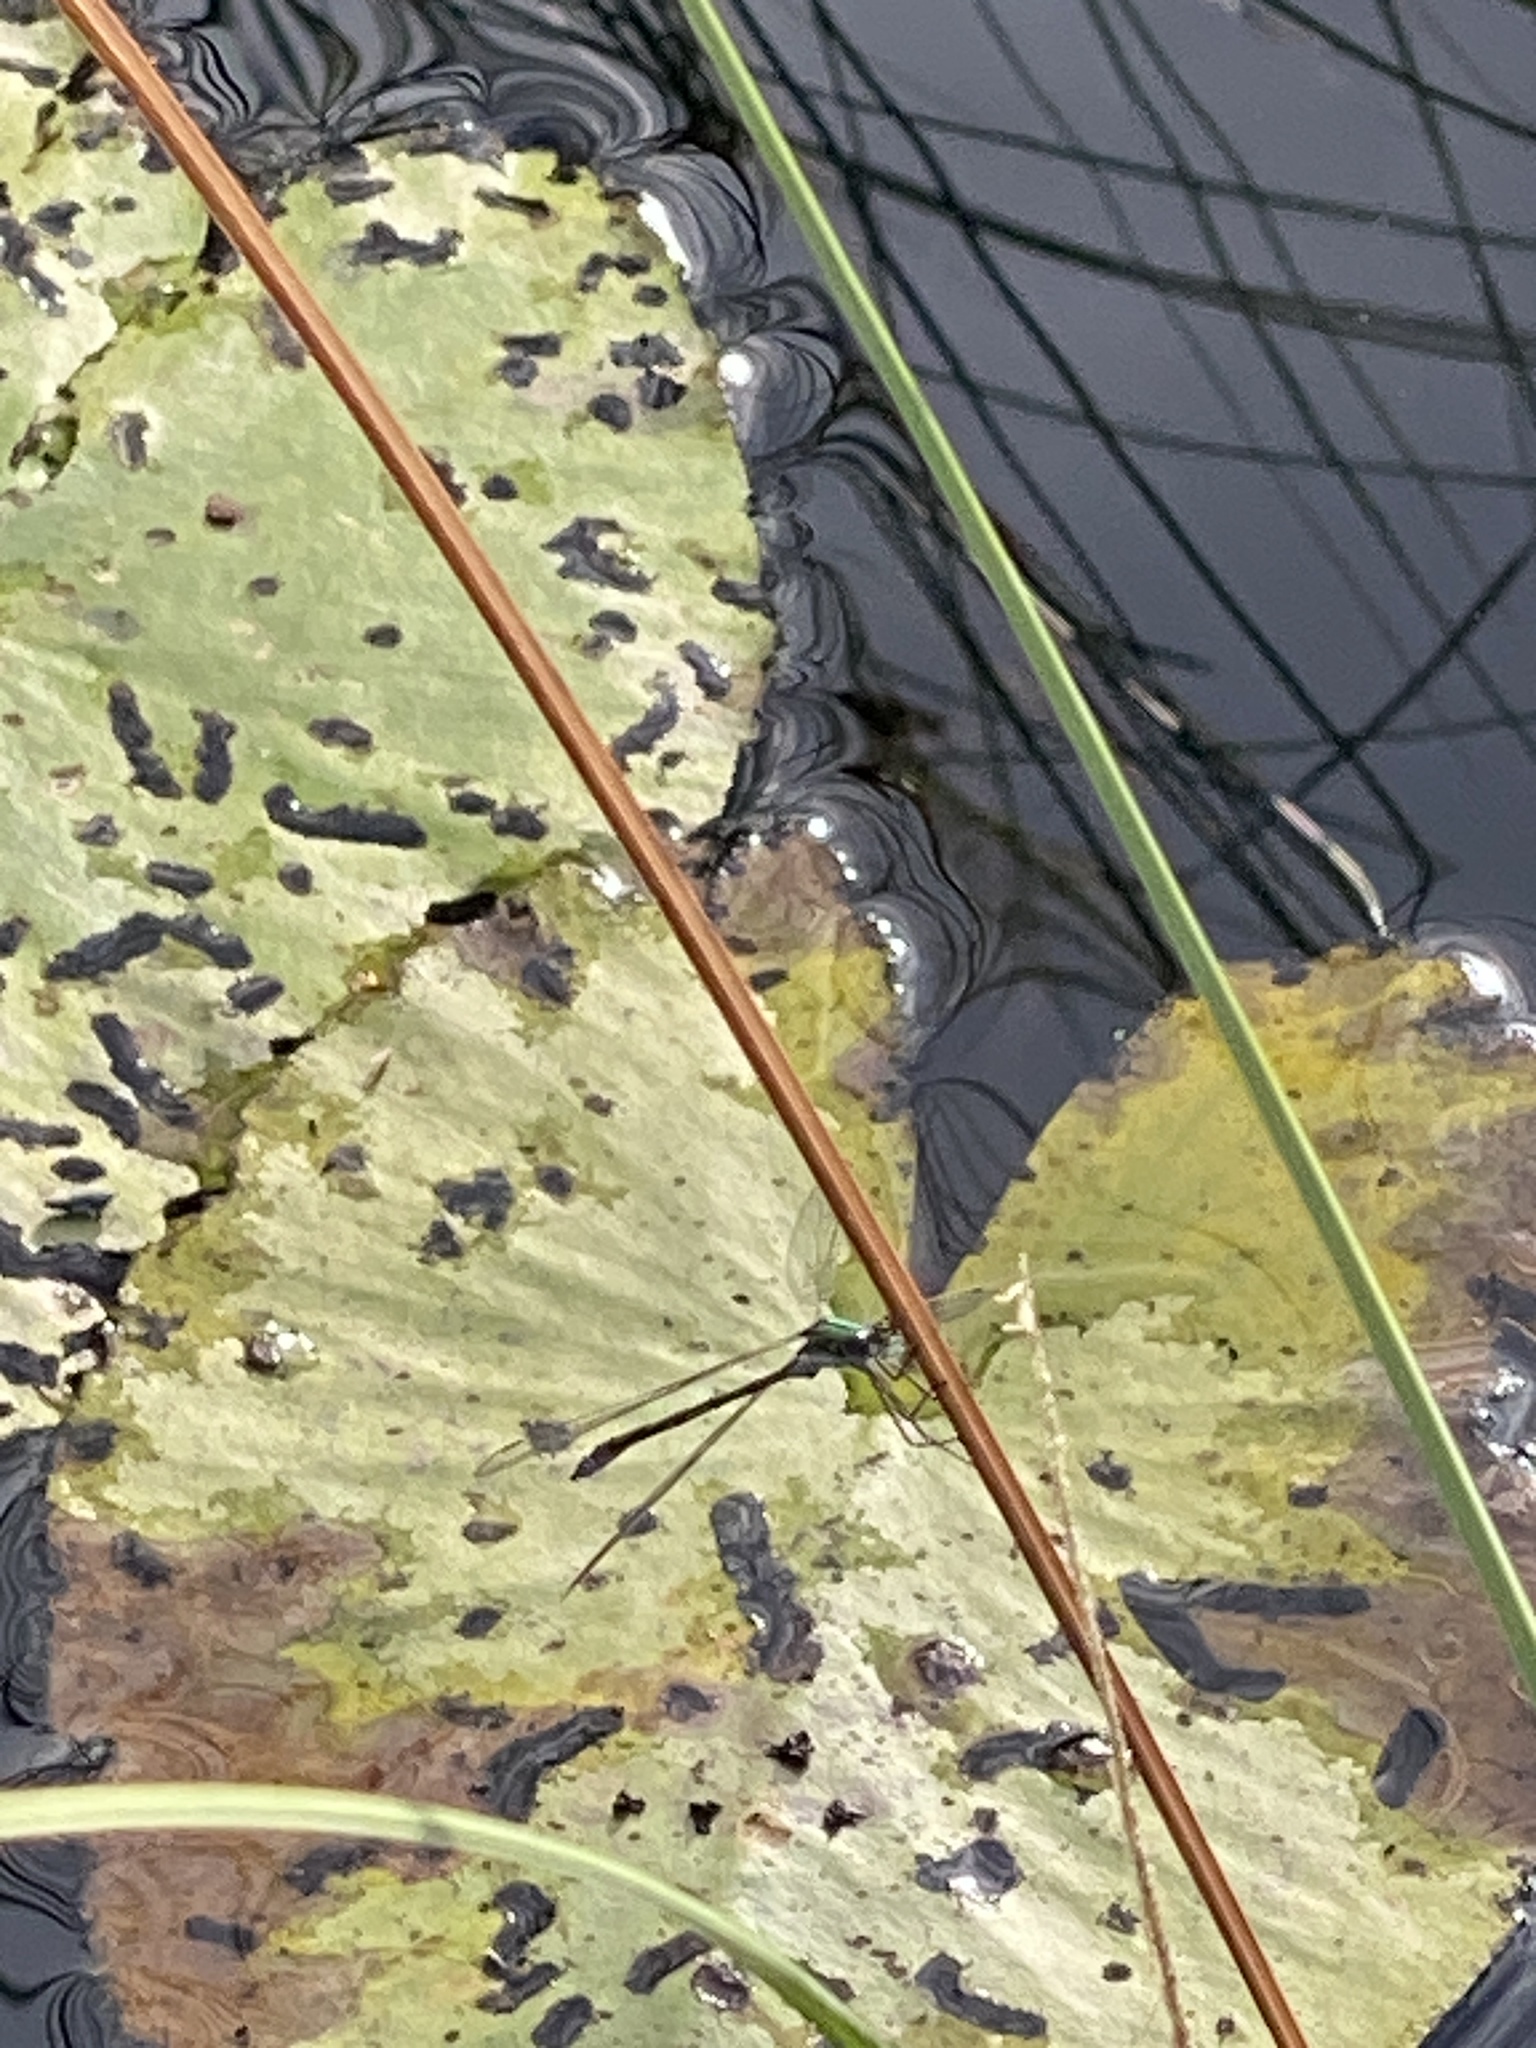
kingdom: Animalia
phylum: Arthropoda
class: Insecta
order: Odonata
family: Lestidae
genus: Lestes
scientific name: Lestes sponsa
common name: Common spreadwing
